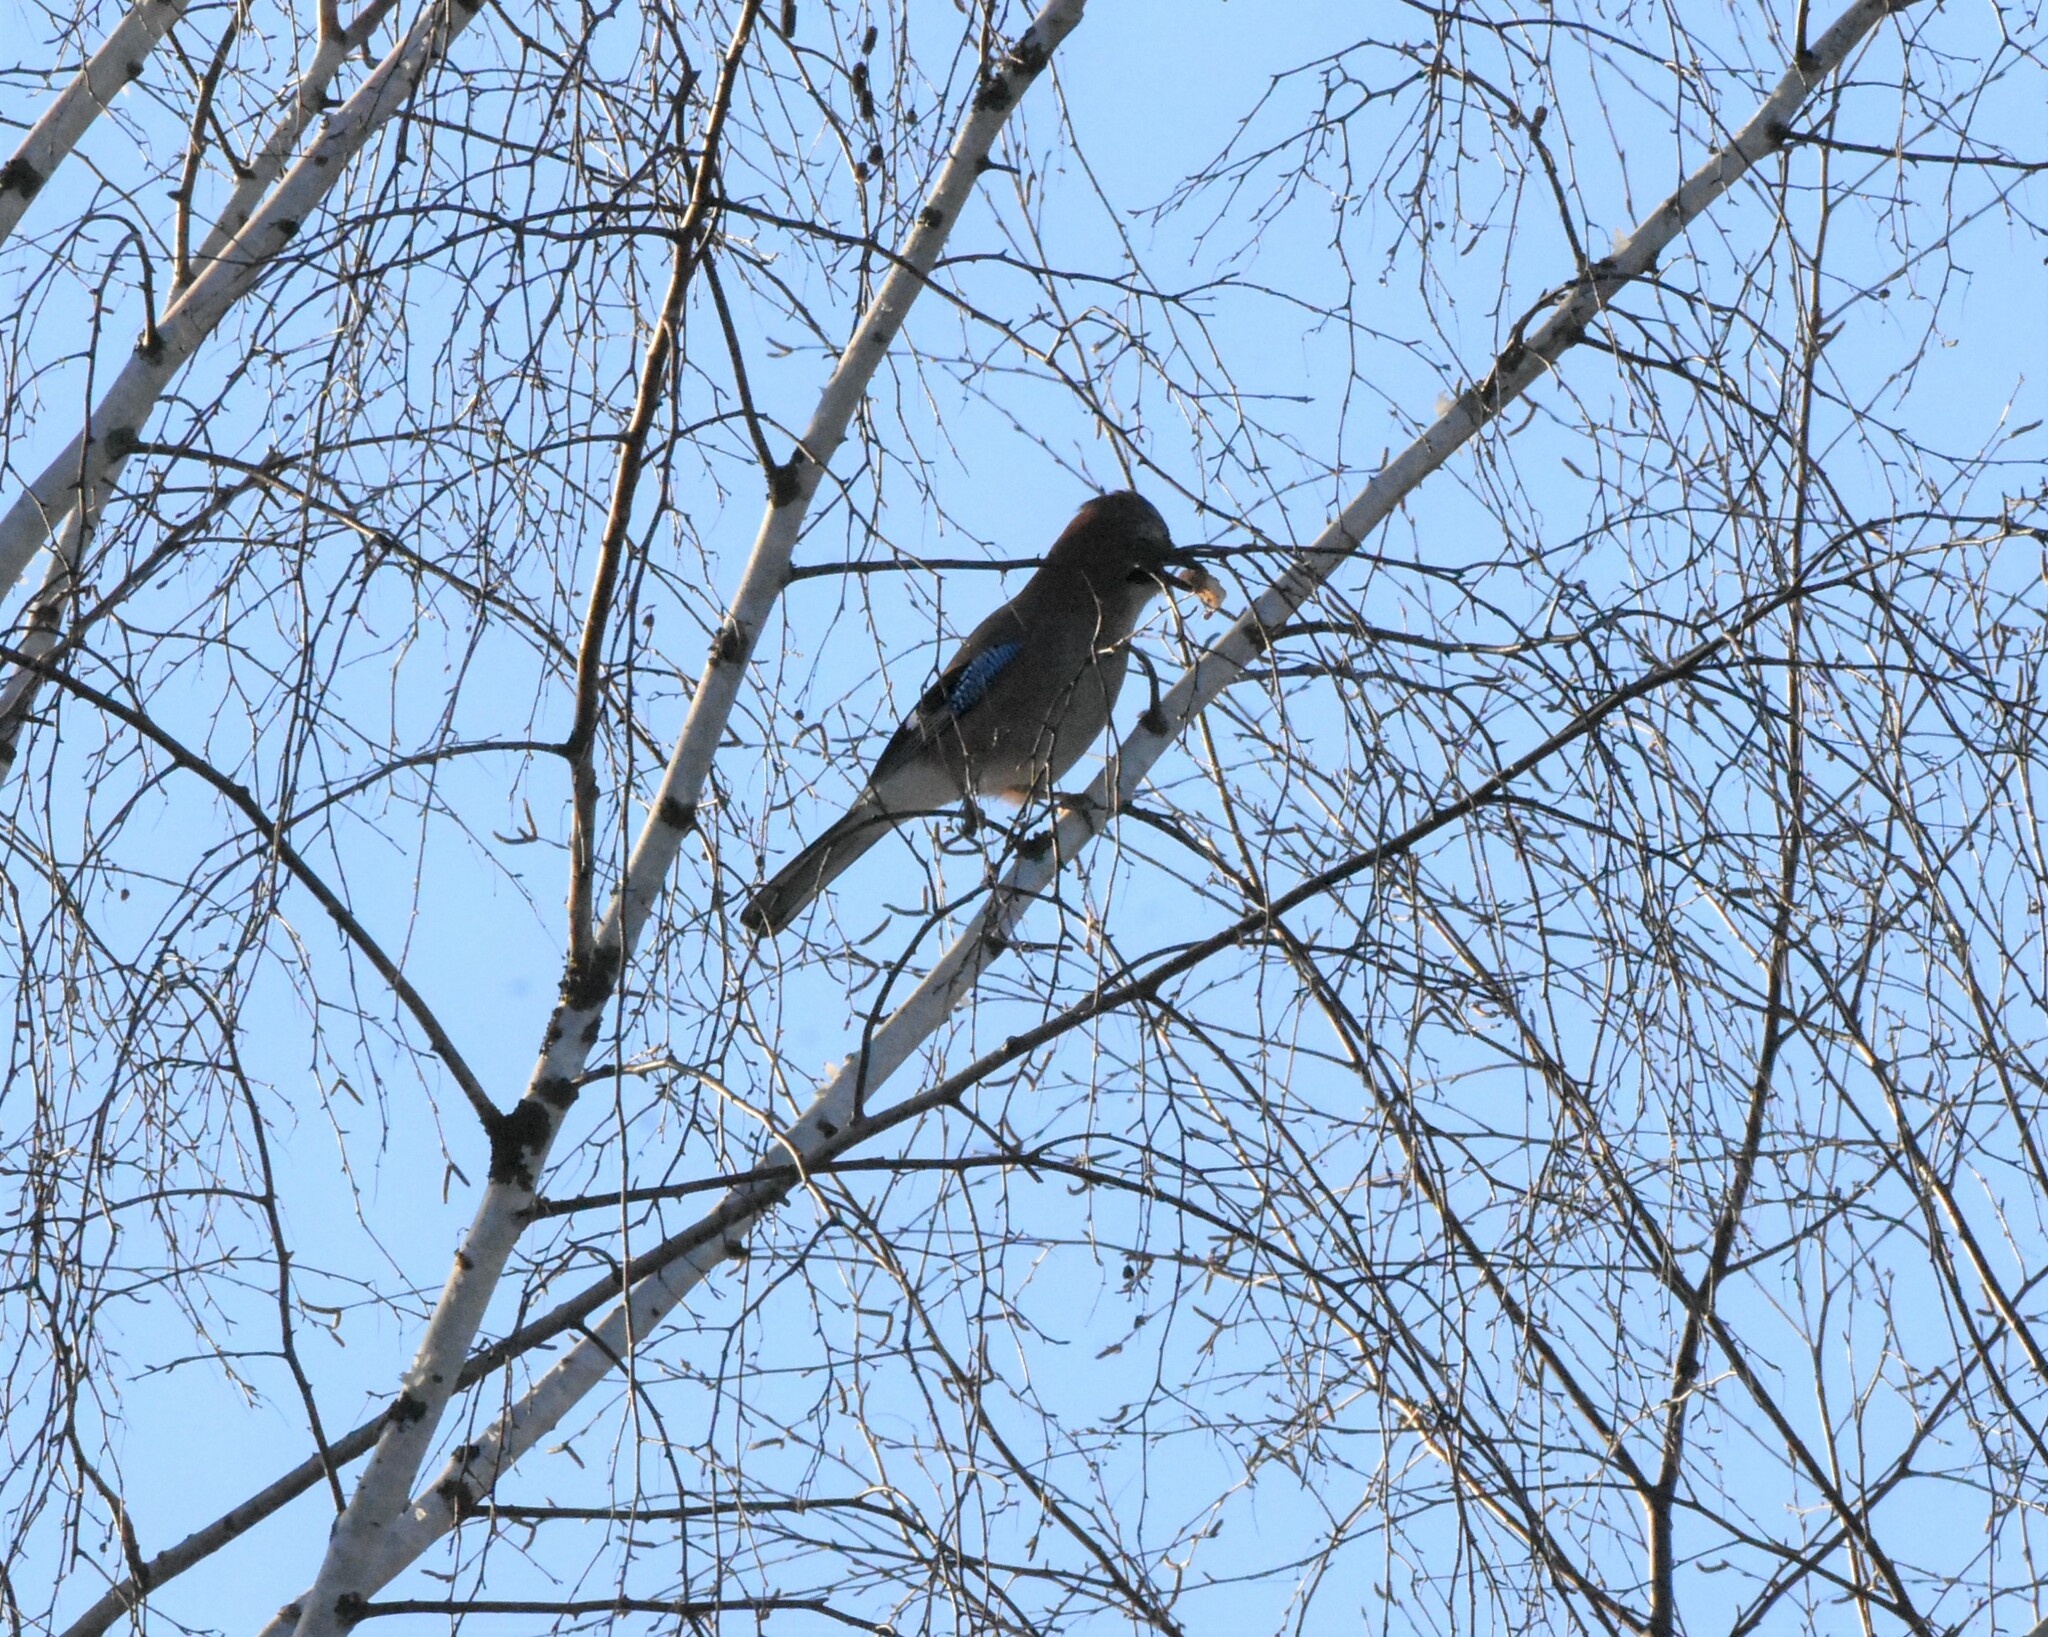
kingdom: Animalia
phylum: Chordata
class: Aves
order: Passeriformes
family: Corvidae
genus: Garrulus
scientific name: Garrulus glandarius
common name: Eurasian jay
